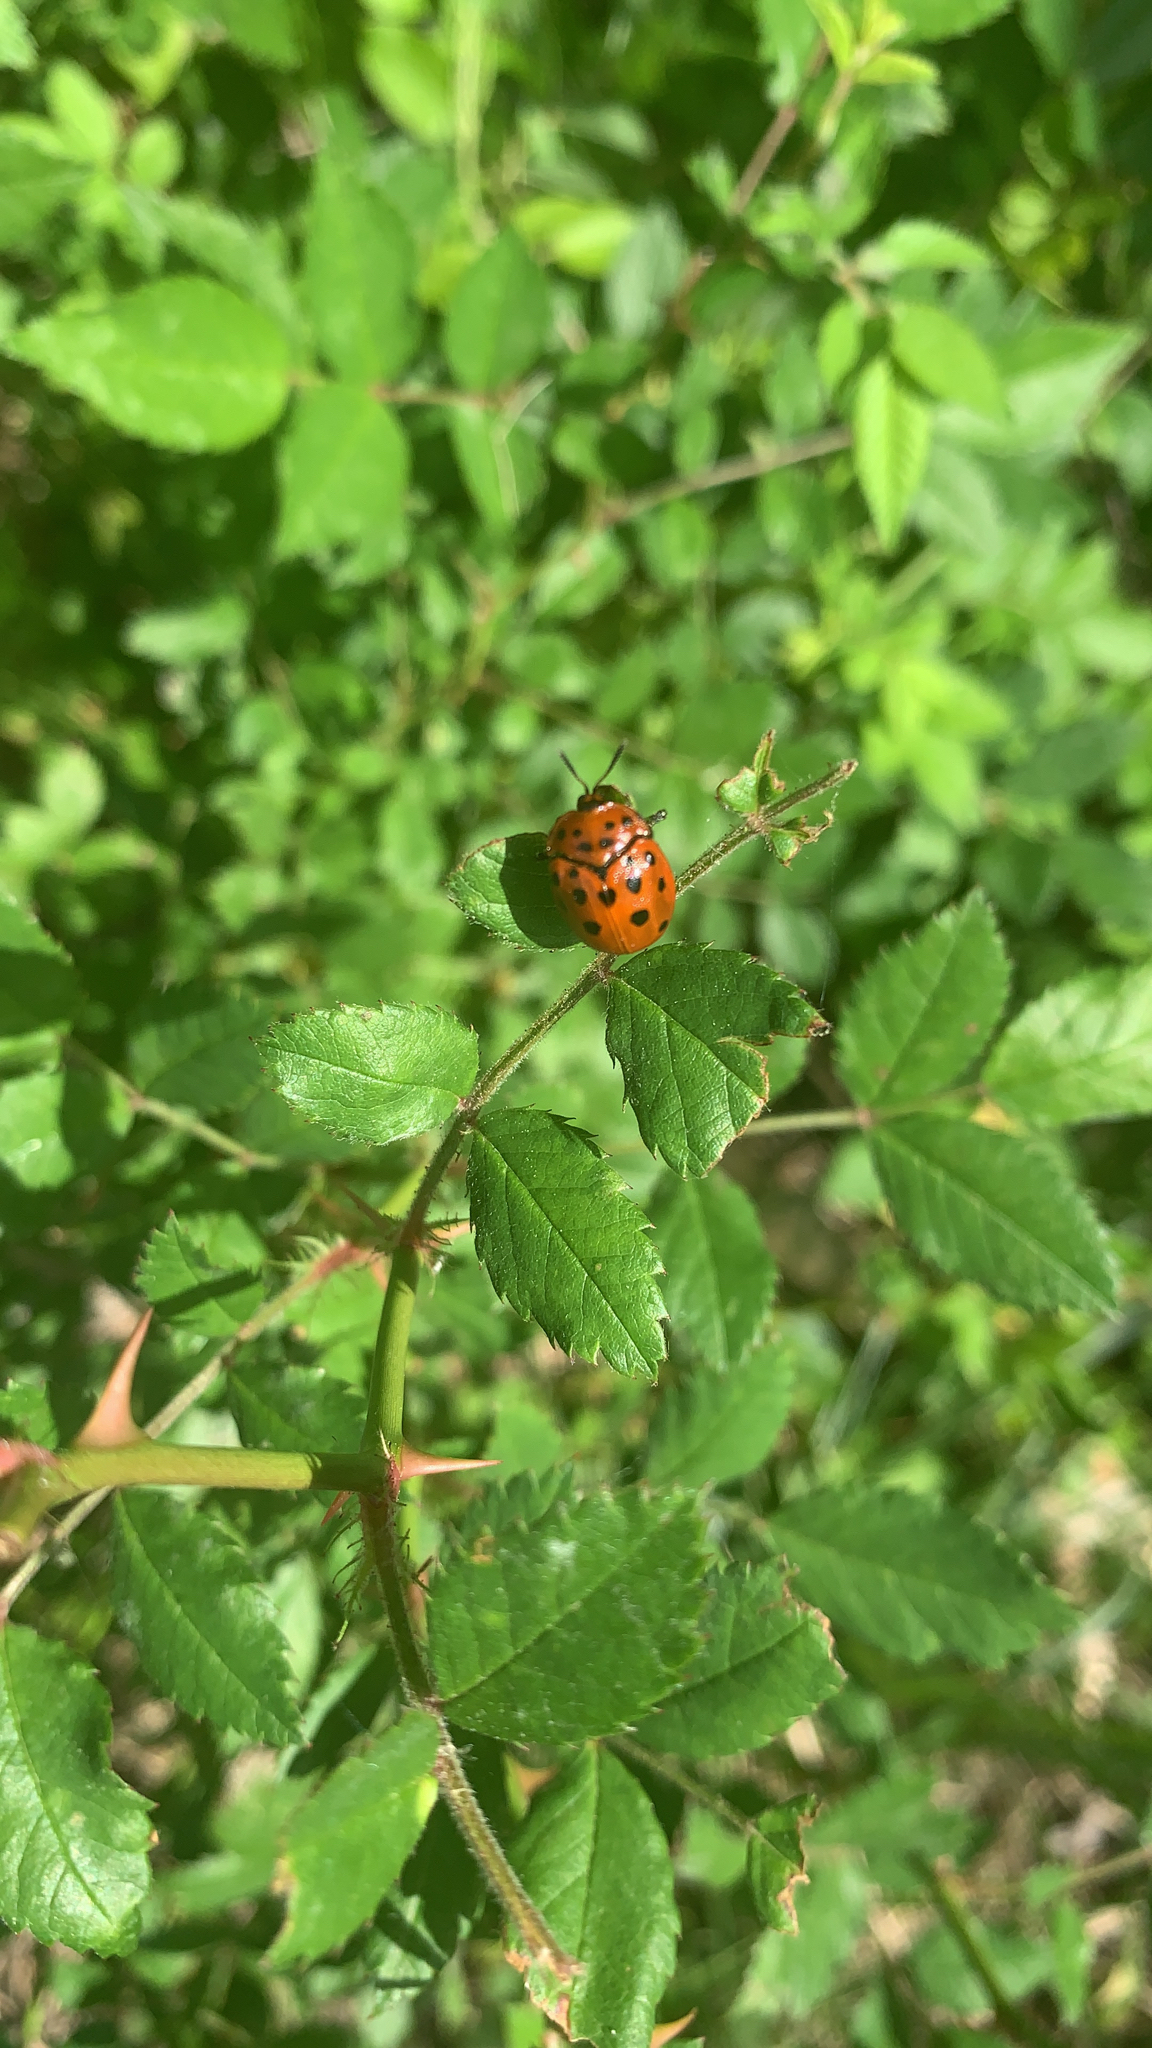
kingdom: Animalia
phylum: Arthropoda
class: Insecta
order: Coleoptera
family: Chrysomelidae
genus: Chelymorpha
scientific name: Chelymorpha cassidea
